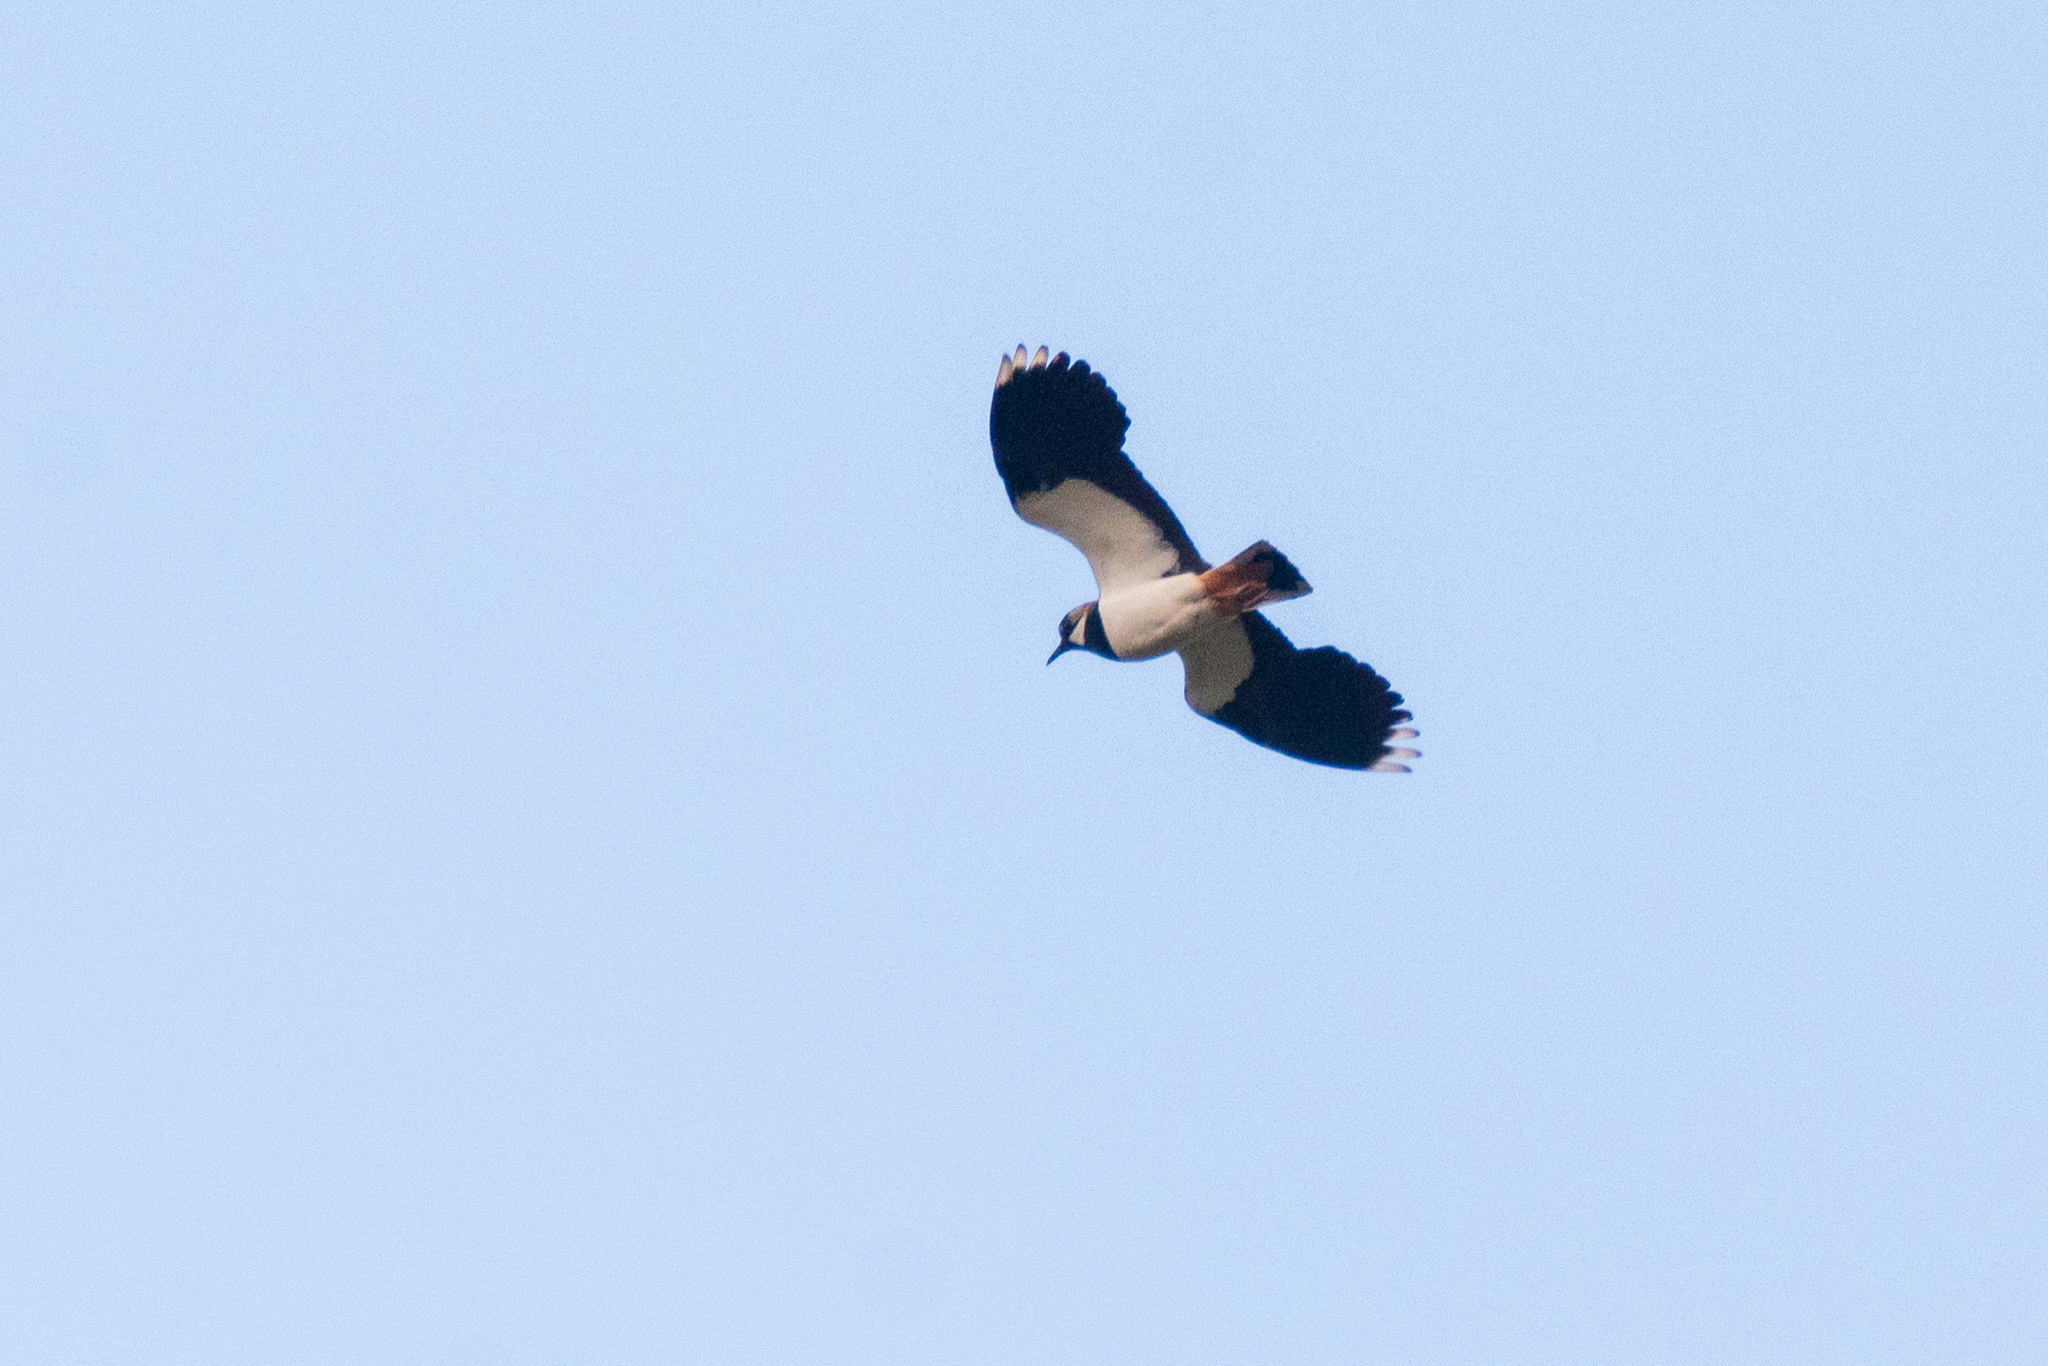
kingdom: Animalia
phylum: Chordata
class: Aves
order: Charadriiformes
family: Charadriidae
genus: Vanellus
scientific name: Vanellus vanellus
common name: Northern lapwing
